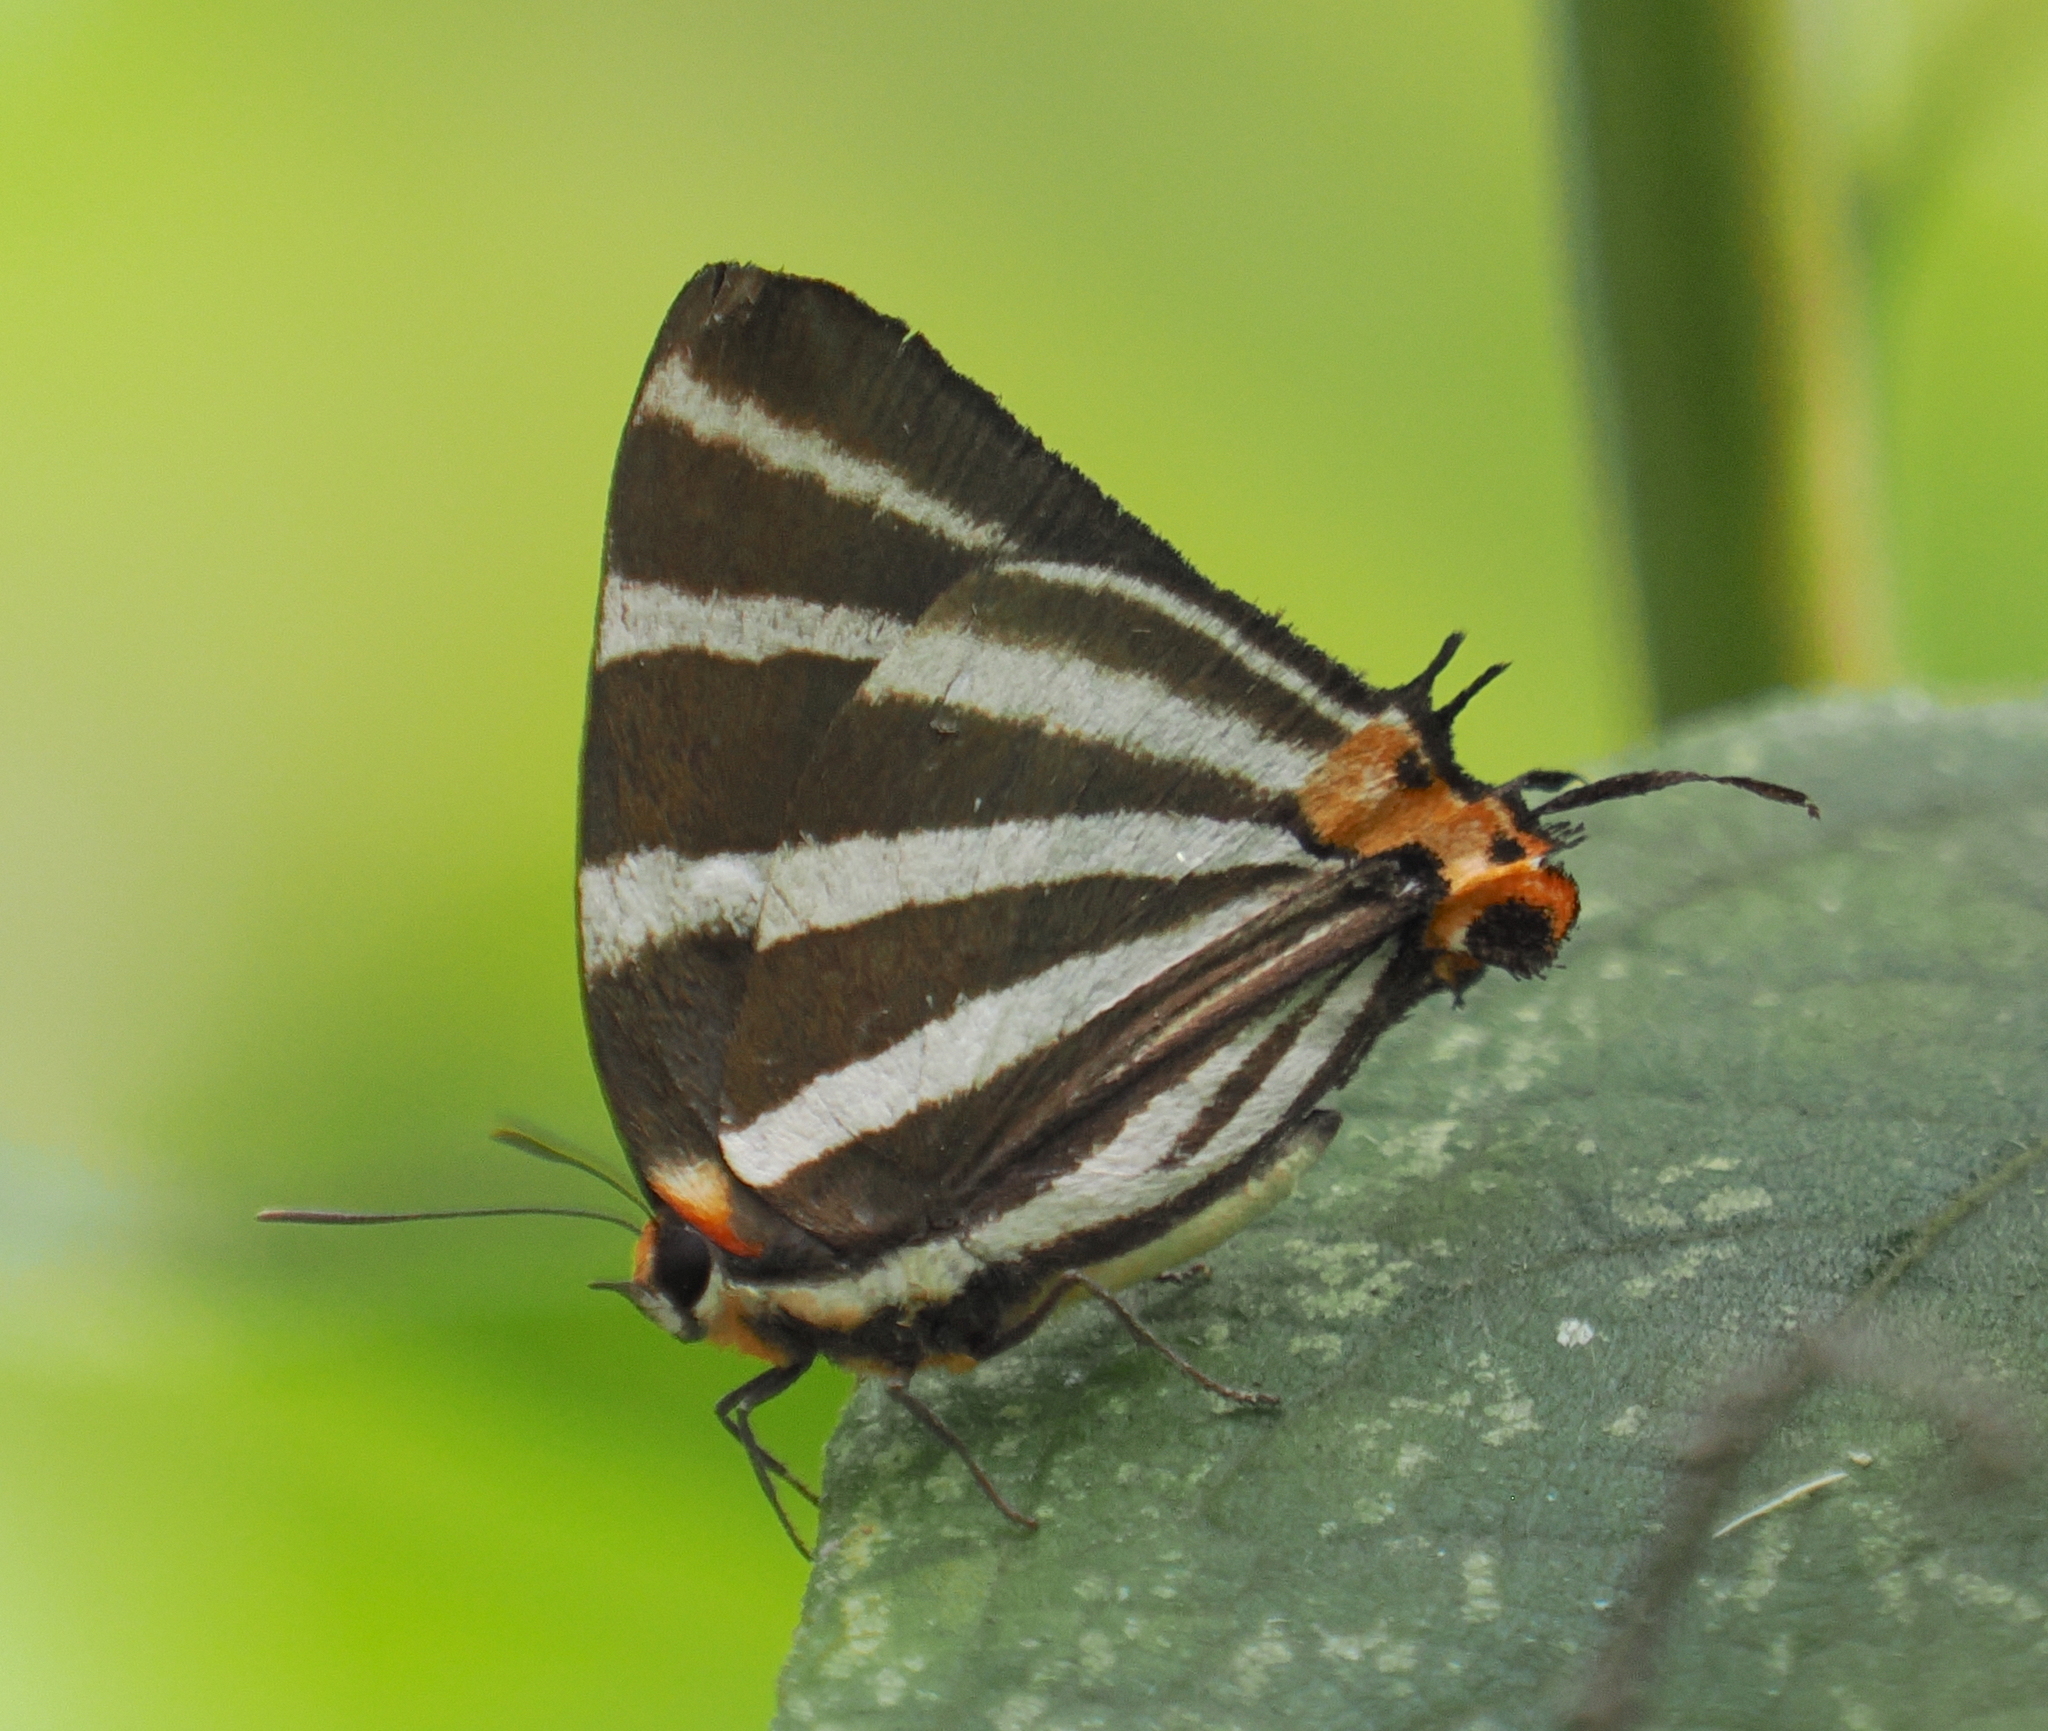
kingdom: Animalia
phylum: Arthropoda
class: Insecta
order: Lepidoptera
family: Lycaenidae
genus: Thecla
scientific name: Thecla bathildis
